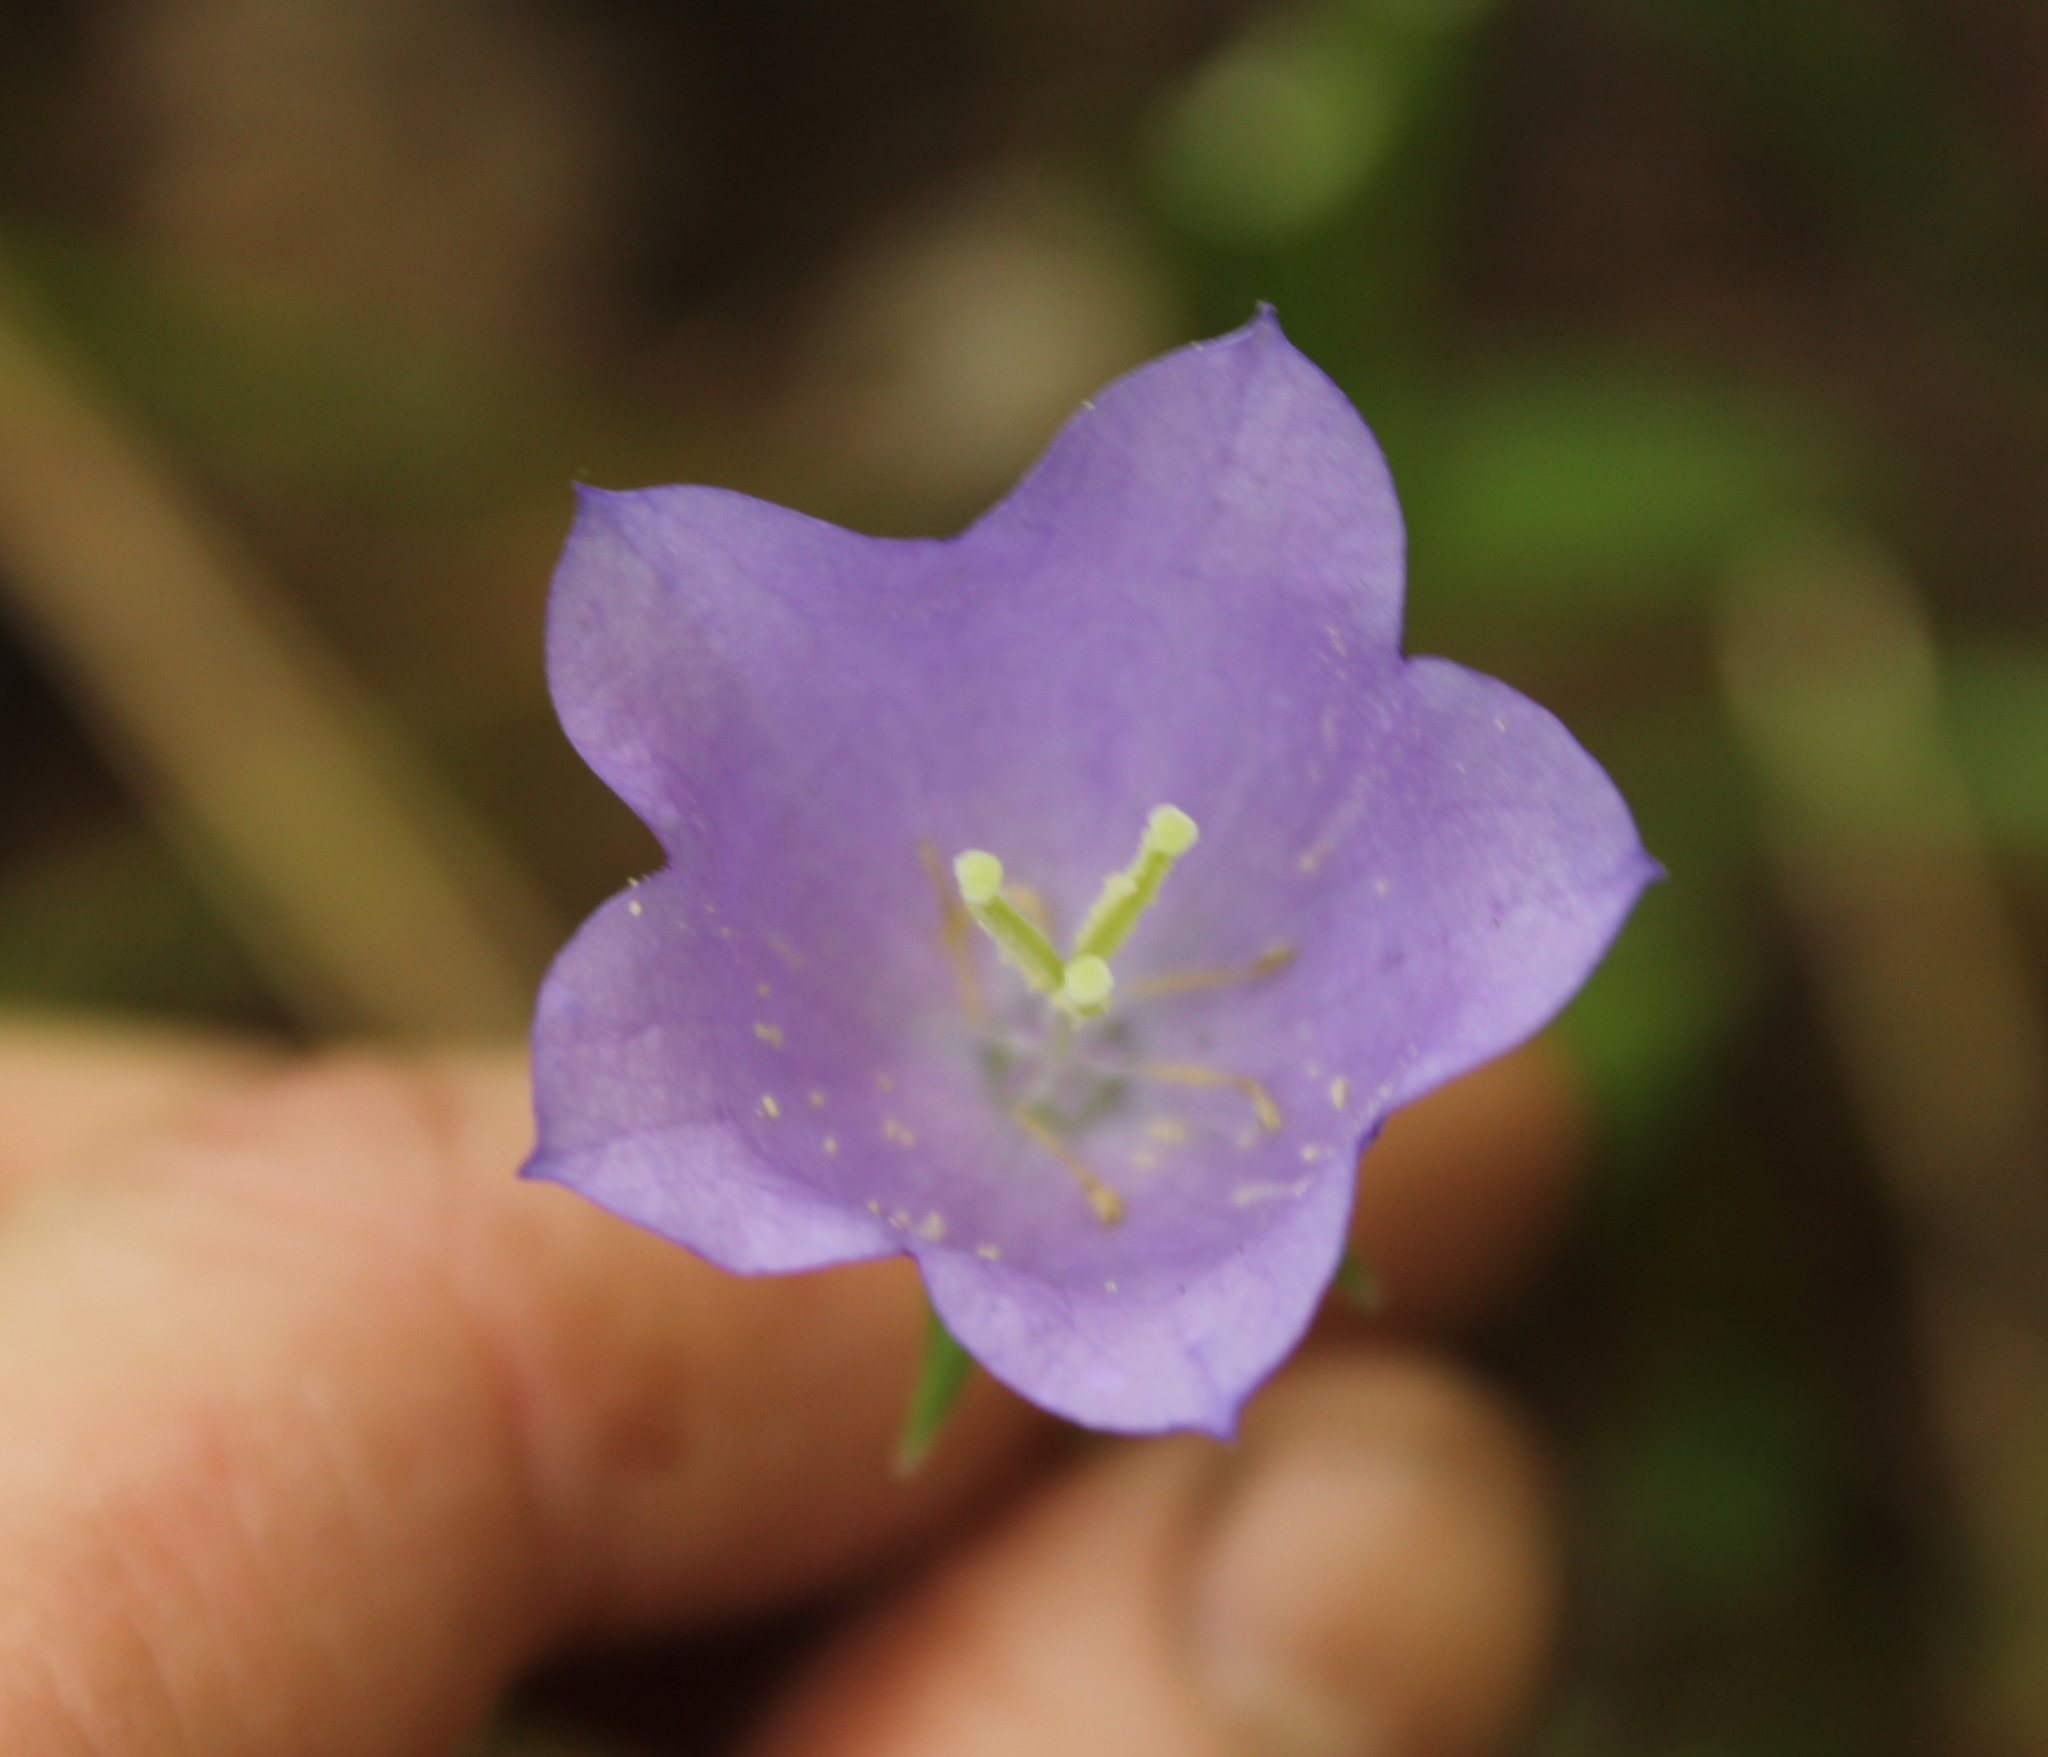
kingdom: Plantae
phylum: Tracheophyta
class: Magnoliopsida
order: Asterales
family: Campanulaceae
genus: Campanula
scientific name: Campanula persicifolia
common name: Peach-leaved bellflower
